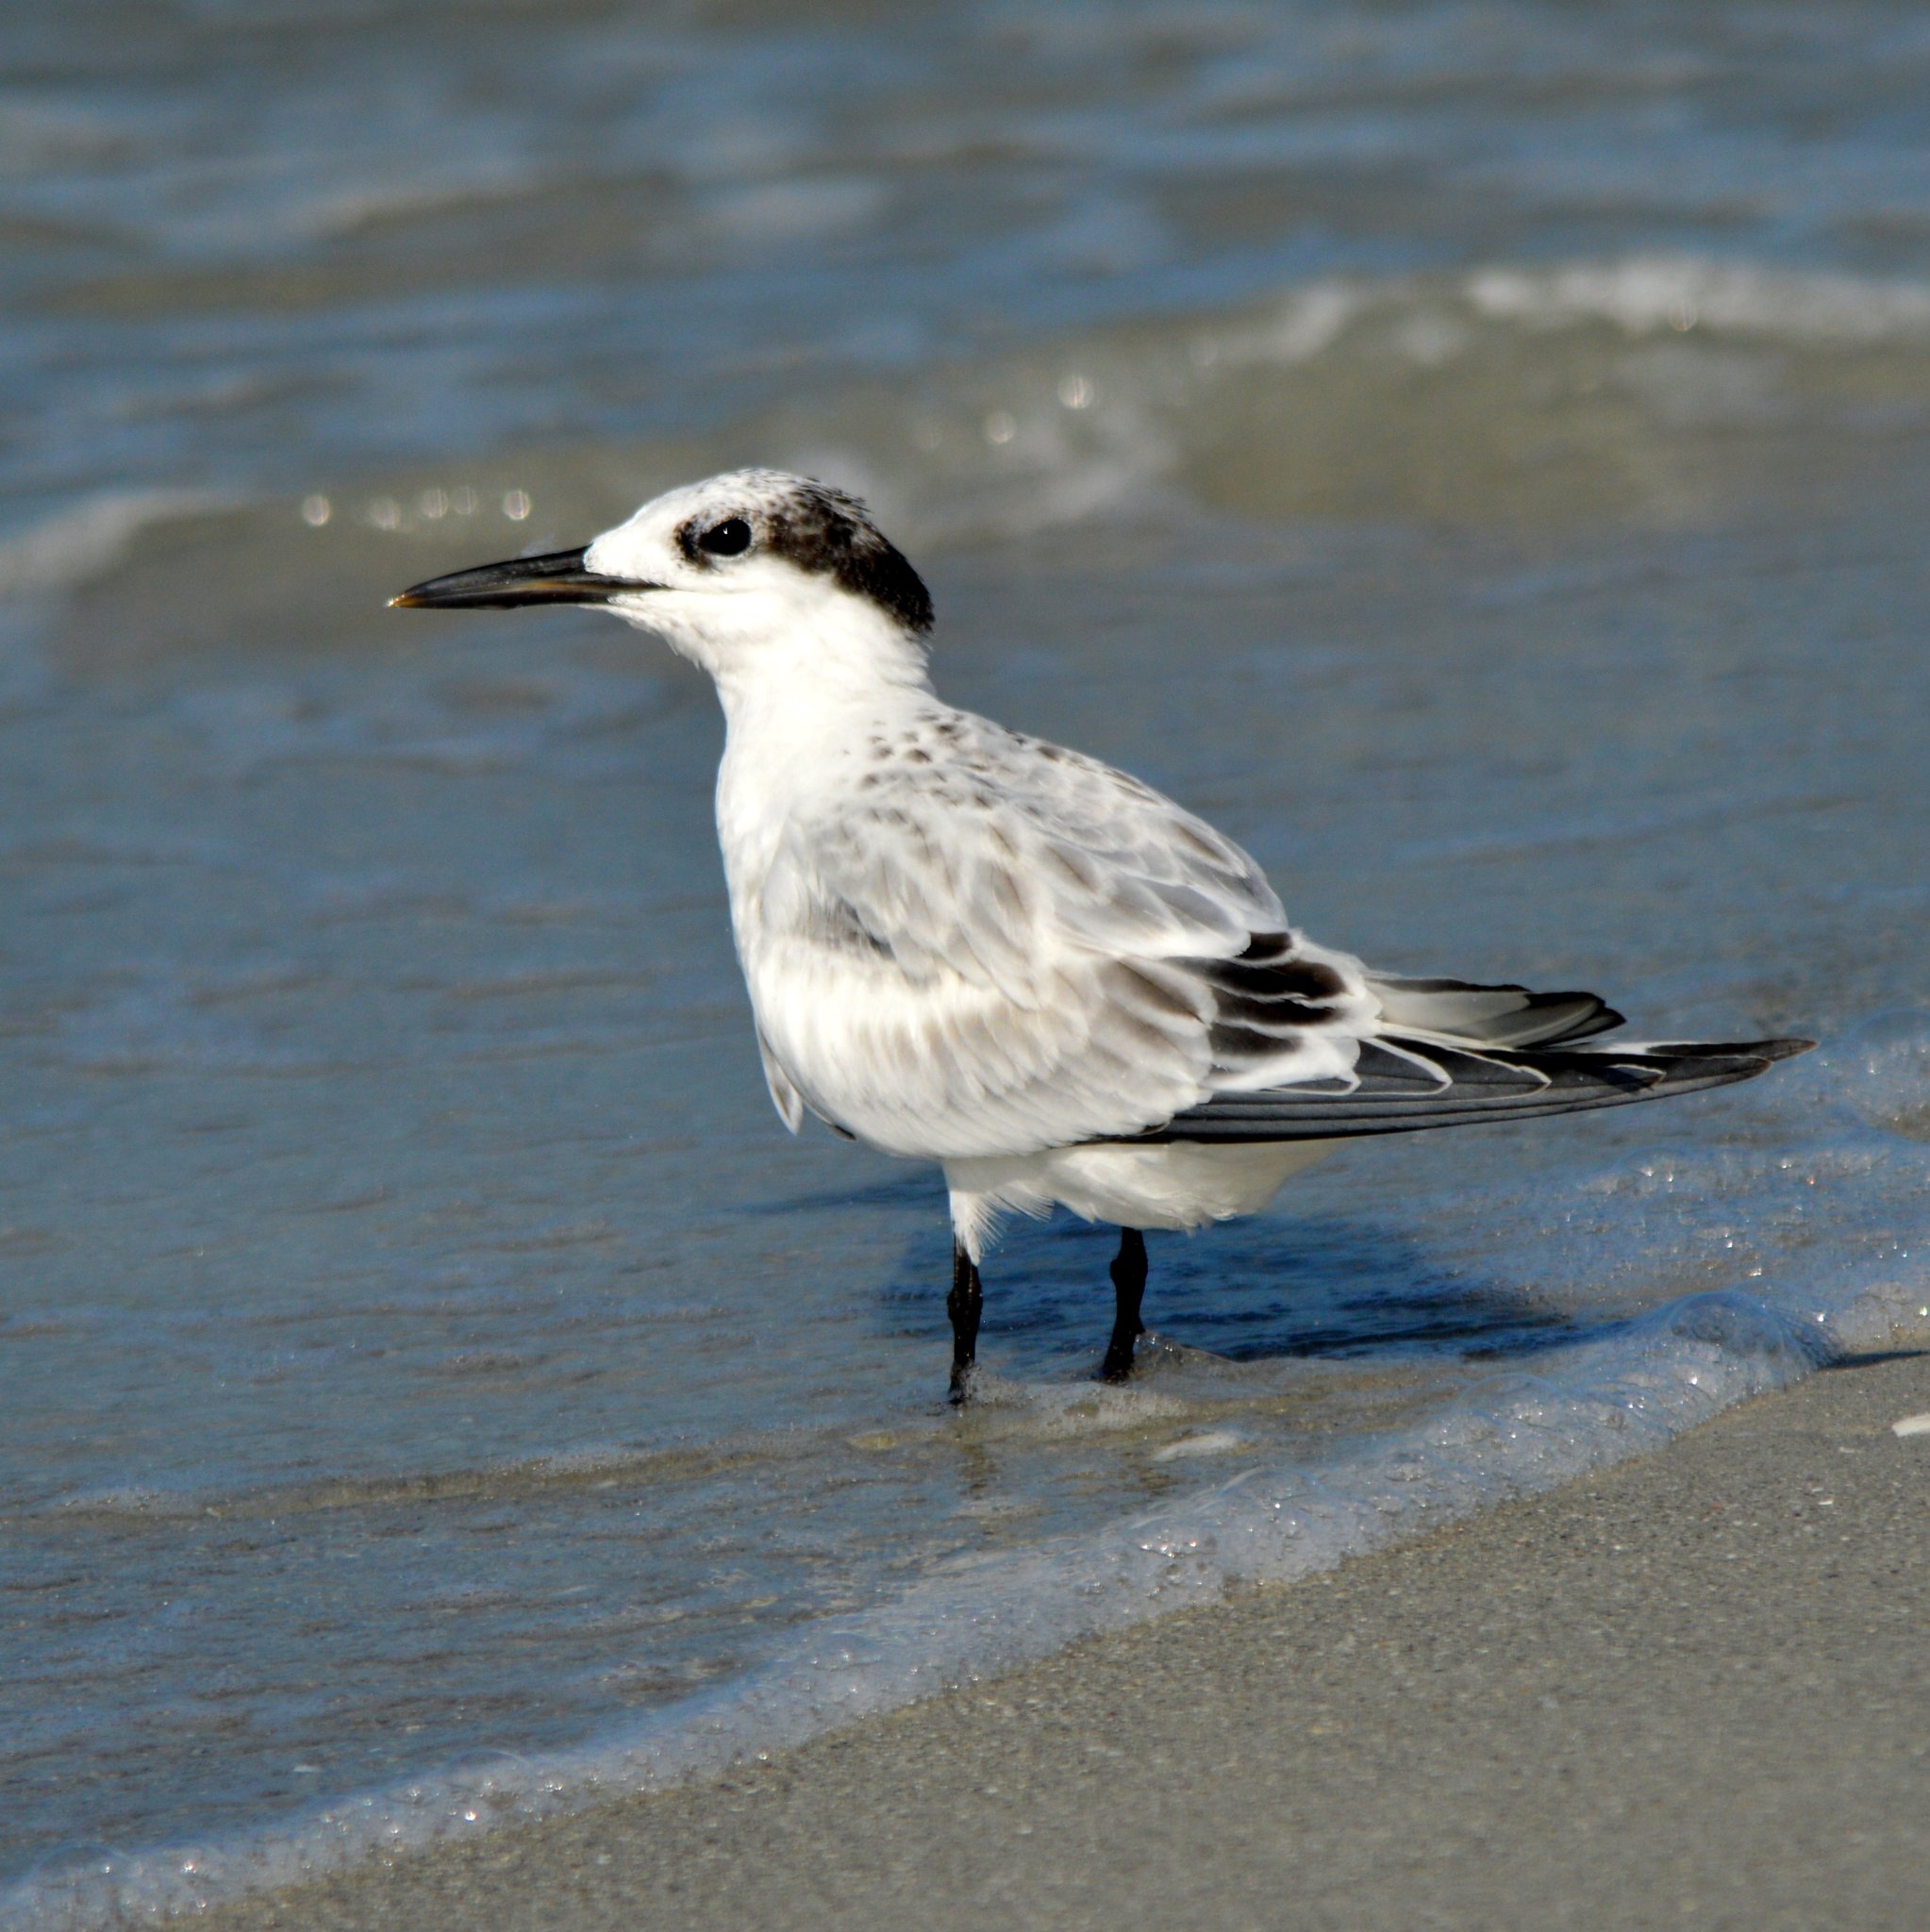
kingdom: Animalia
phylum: Chordata
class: Aves
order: Charadriiformes
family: Laridae
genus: Thalasseus
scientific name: Thalasseus sandvicensis
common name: Sandwich tern
